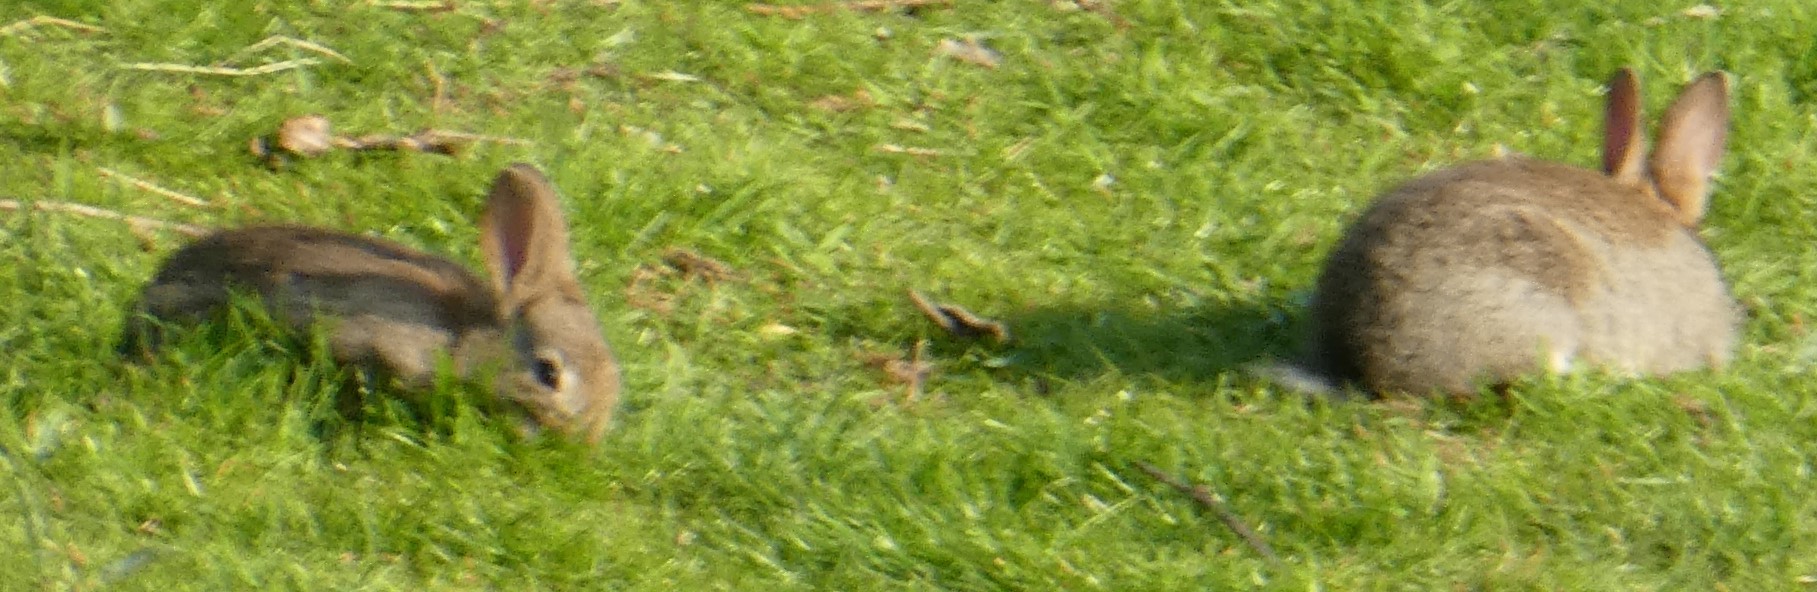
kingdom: Animalia
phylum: Chordata
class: Mammalia
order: Lagomorpha
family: Leporidae
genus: Oryctolagus
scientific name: Oryctolagus cuniculus
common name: European rabbit
